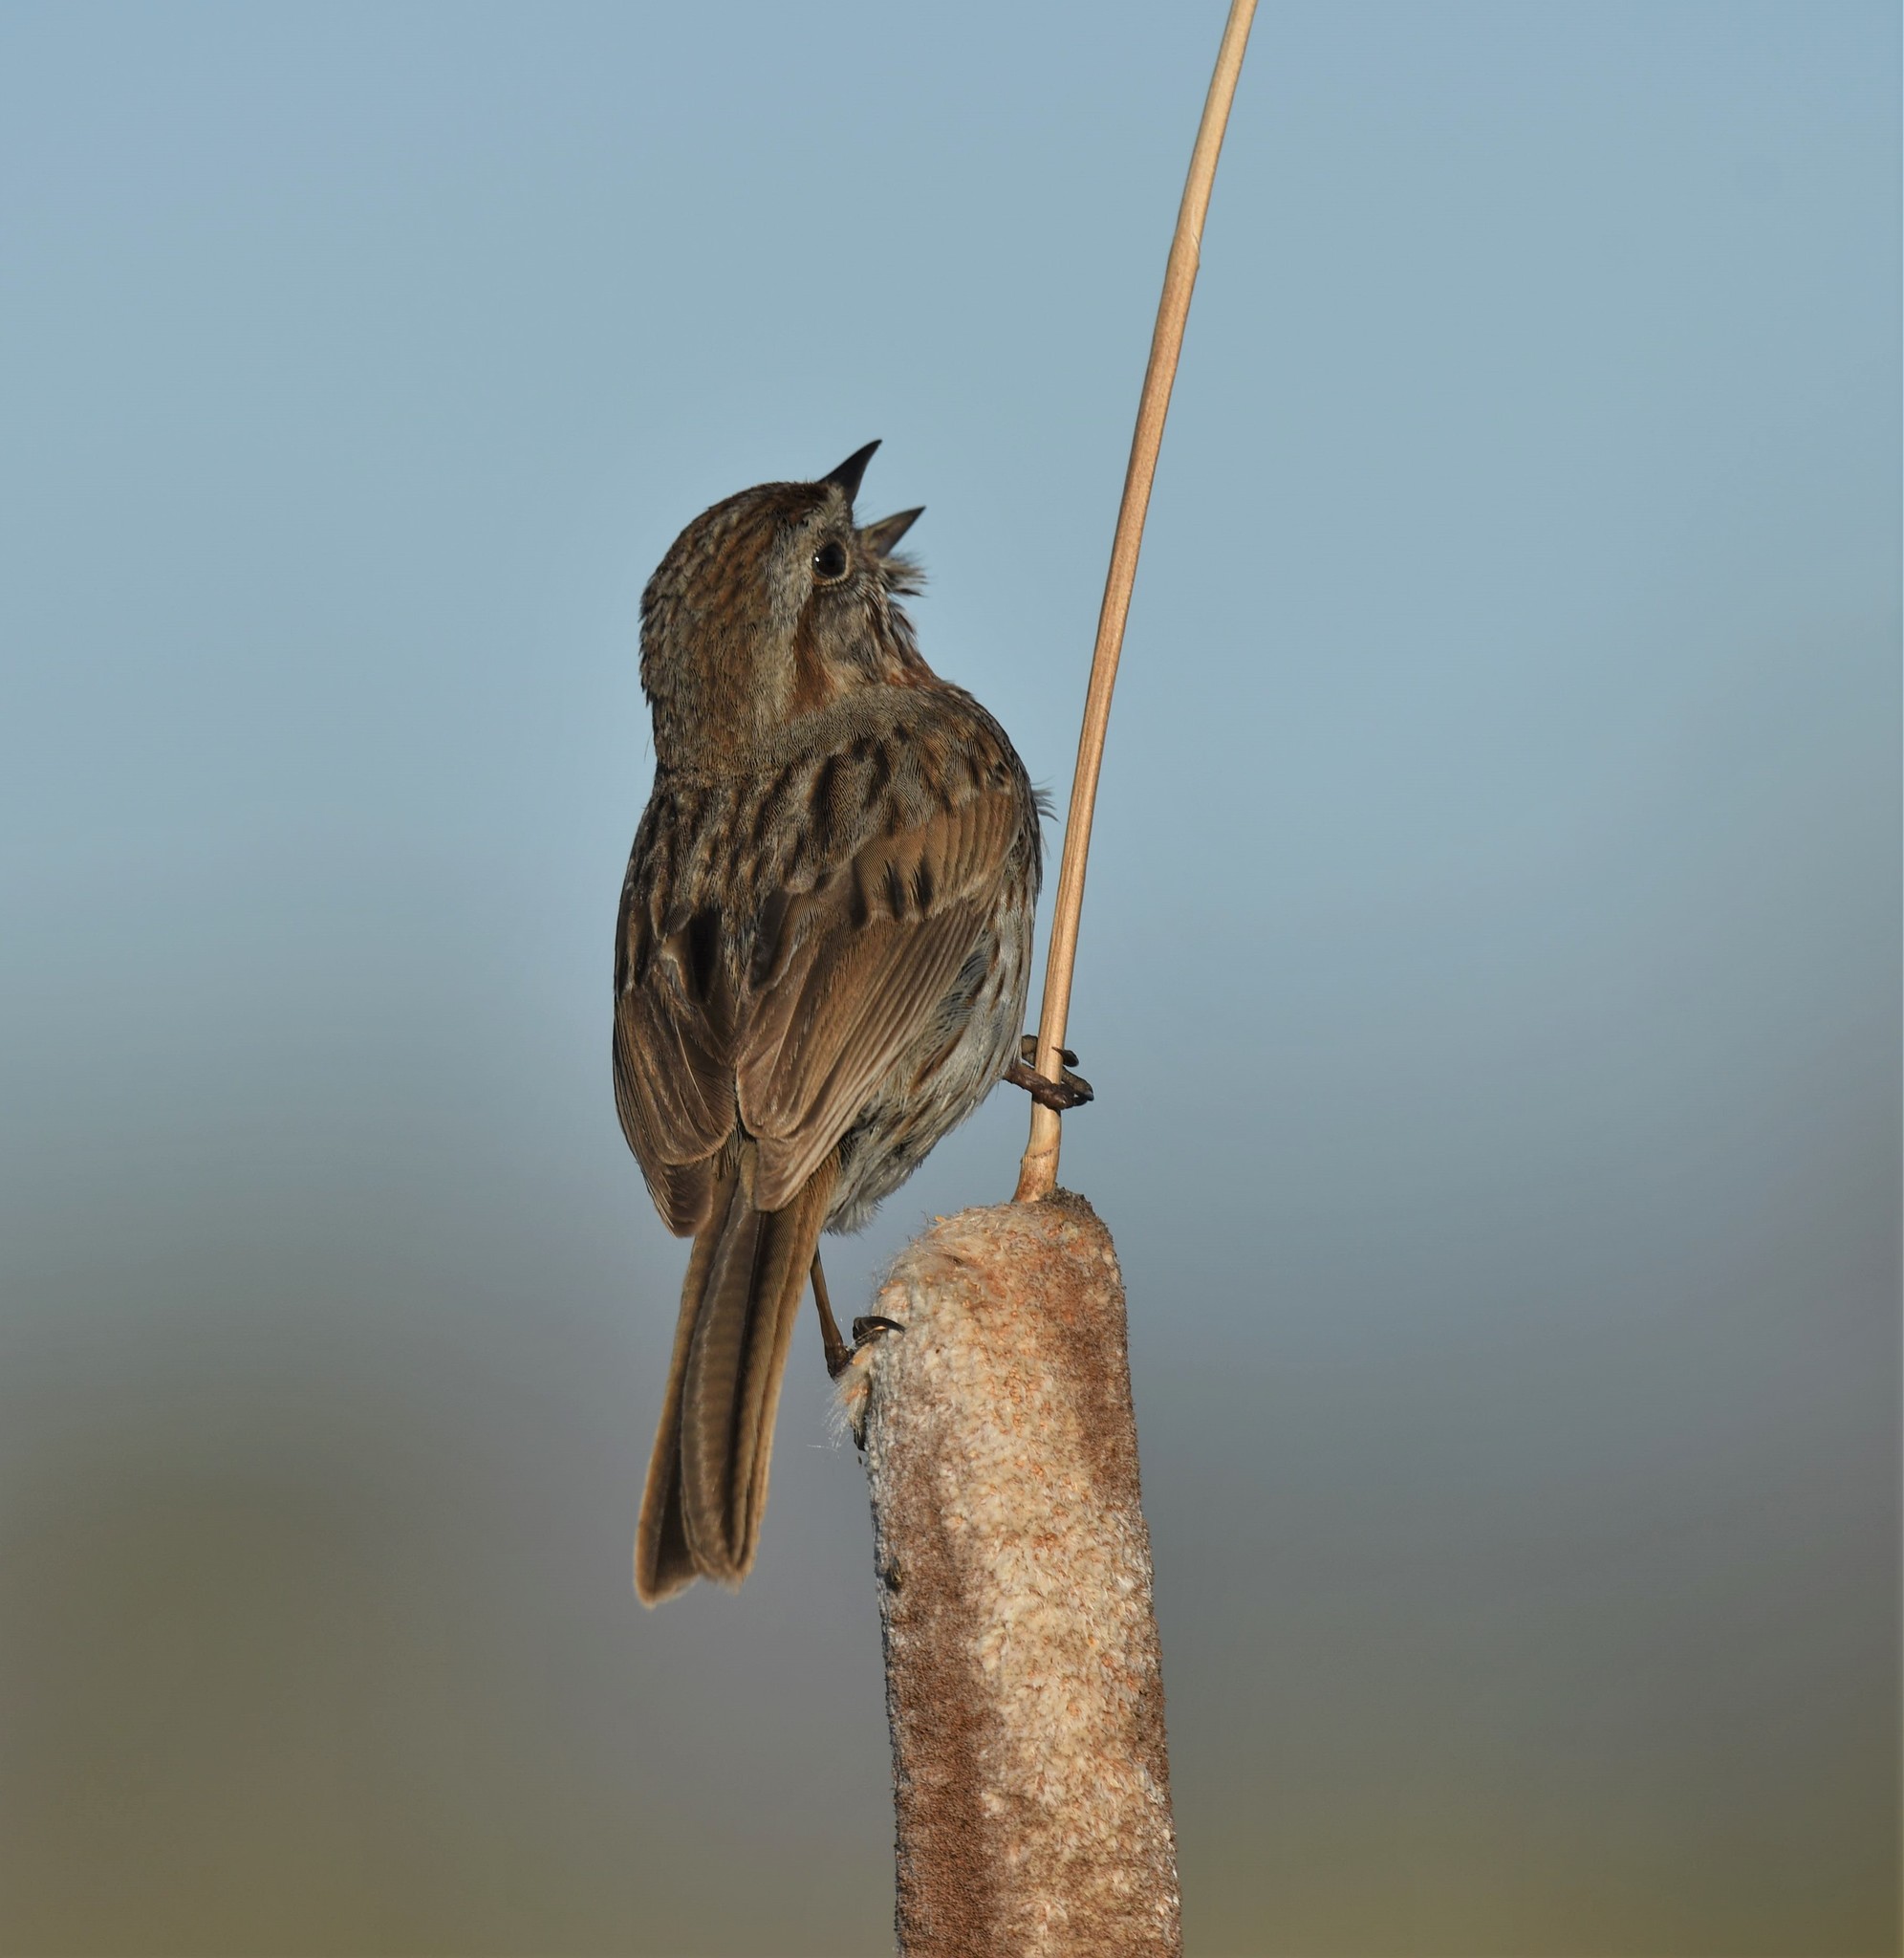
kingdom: Animalia
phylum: Chordata
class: Aves
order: Passeriformes
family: Passerellidae
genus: Melospiza
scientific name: Melospiza melodia
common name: Song sparrow
